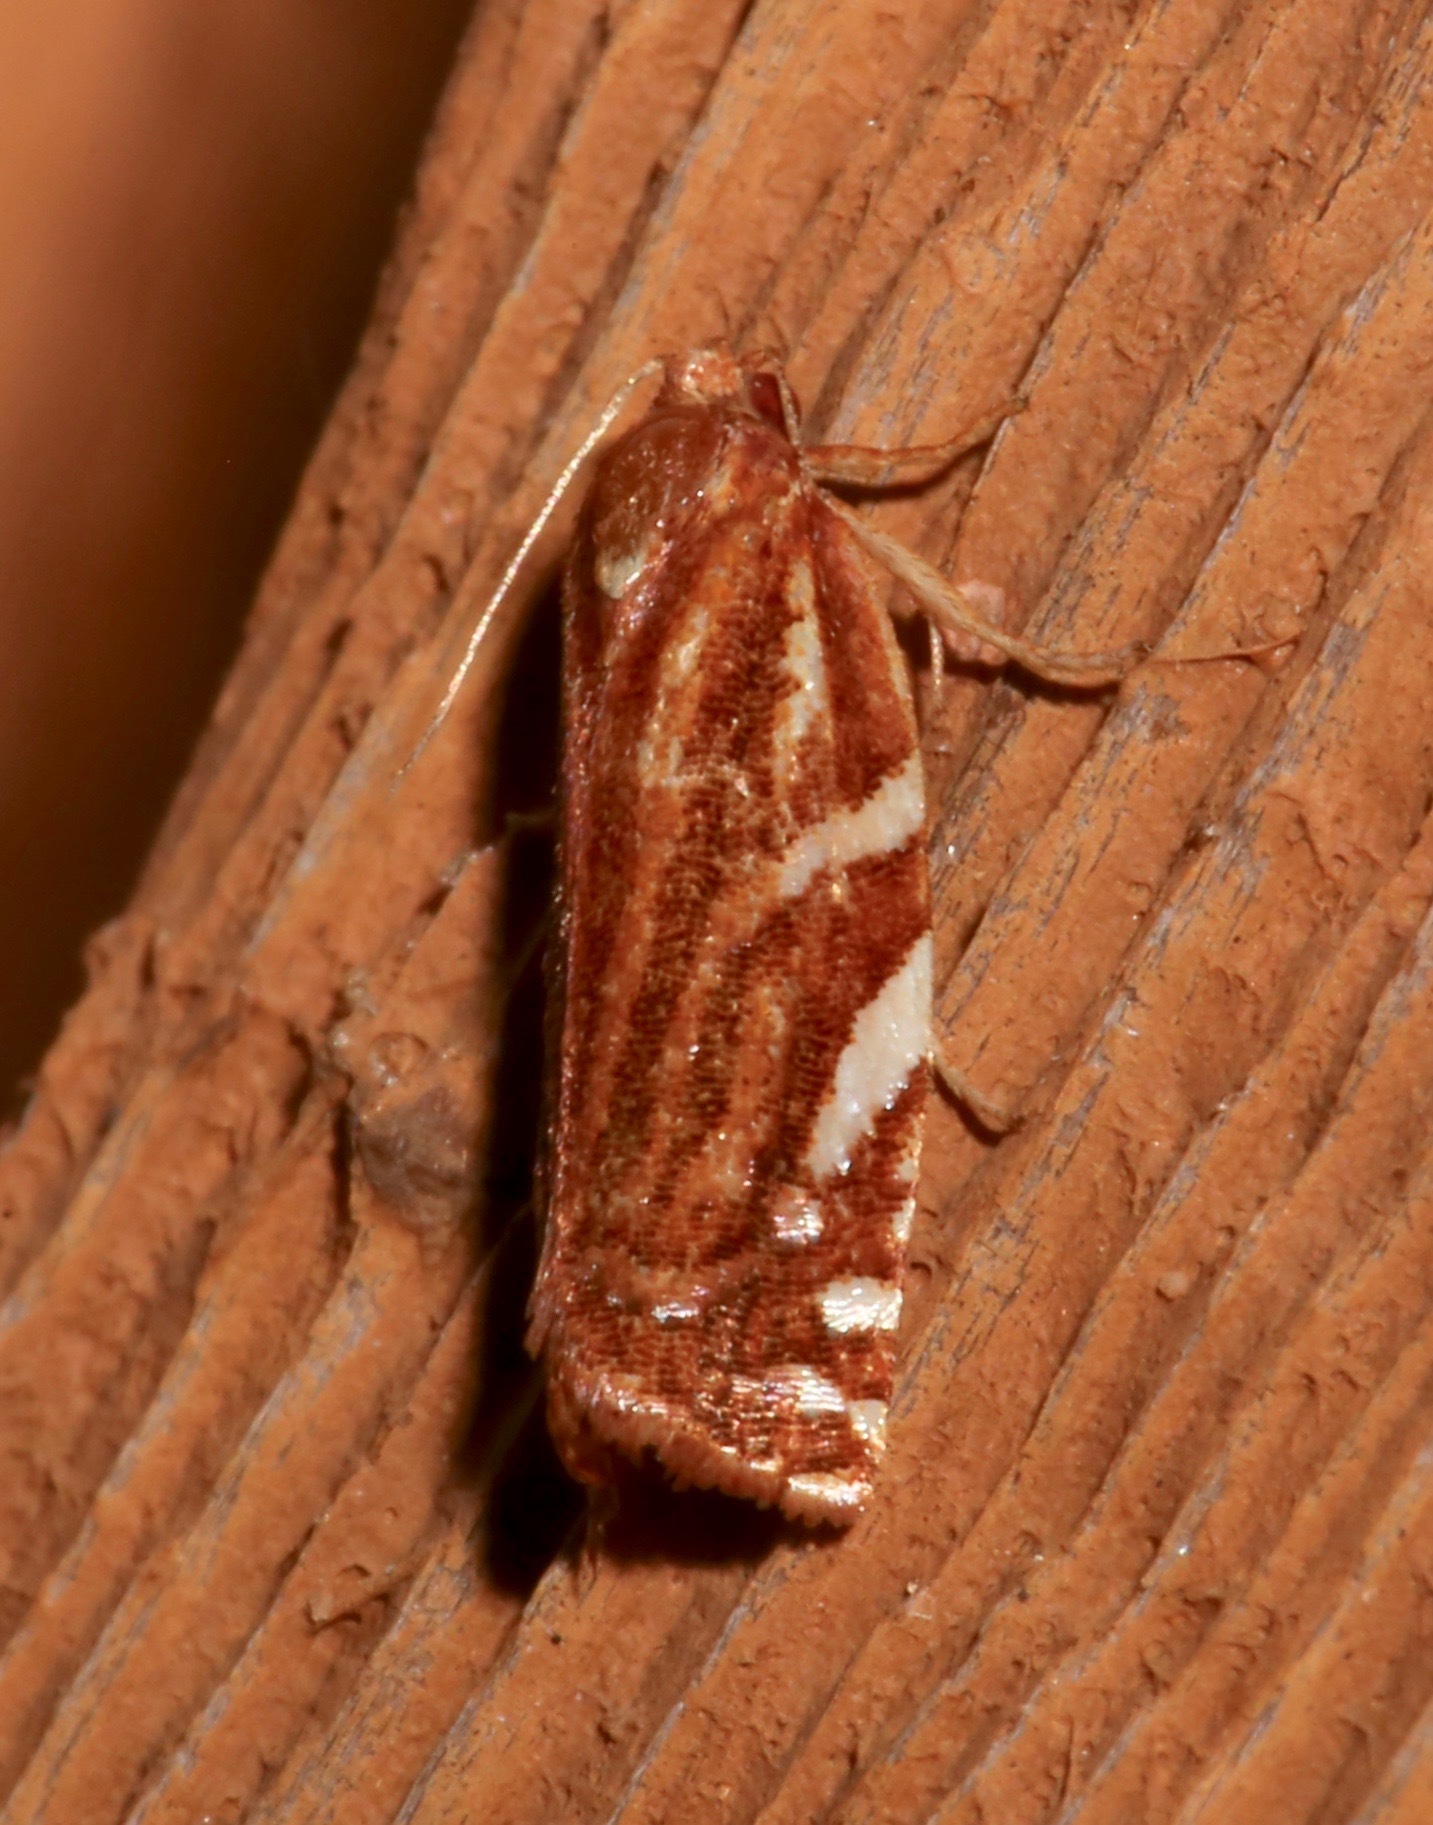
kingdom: Animalia
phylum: Arthropoda
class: Insecta
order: Lepidoptera
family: Tortricidae
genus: Choristoneura
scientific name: Choristoneura argentifasciata
